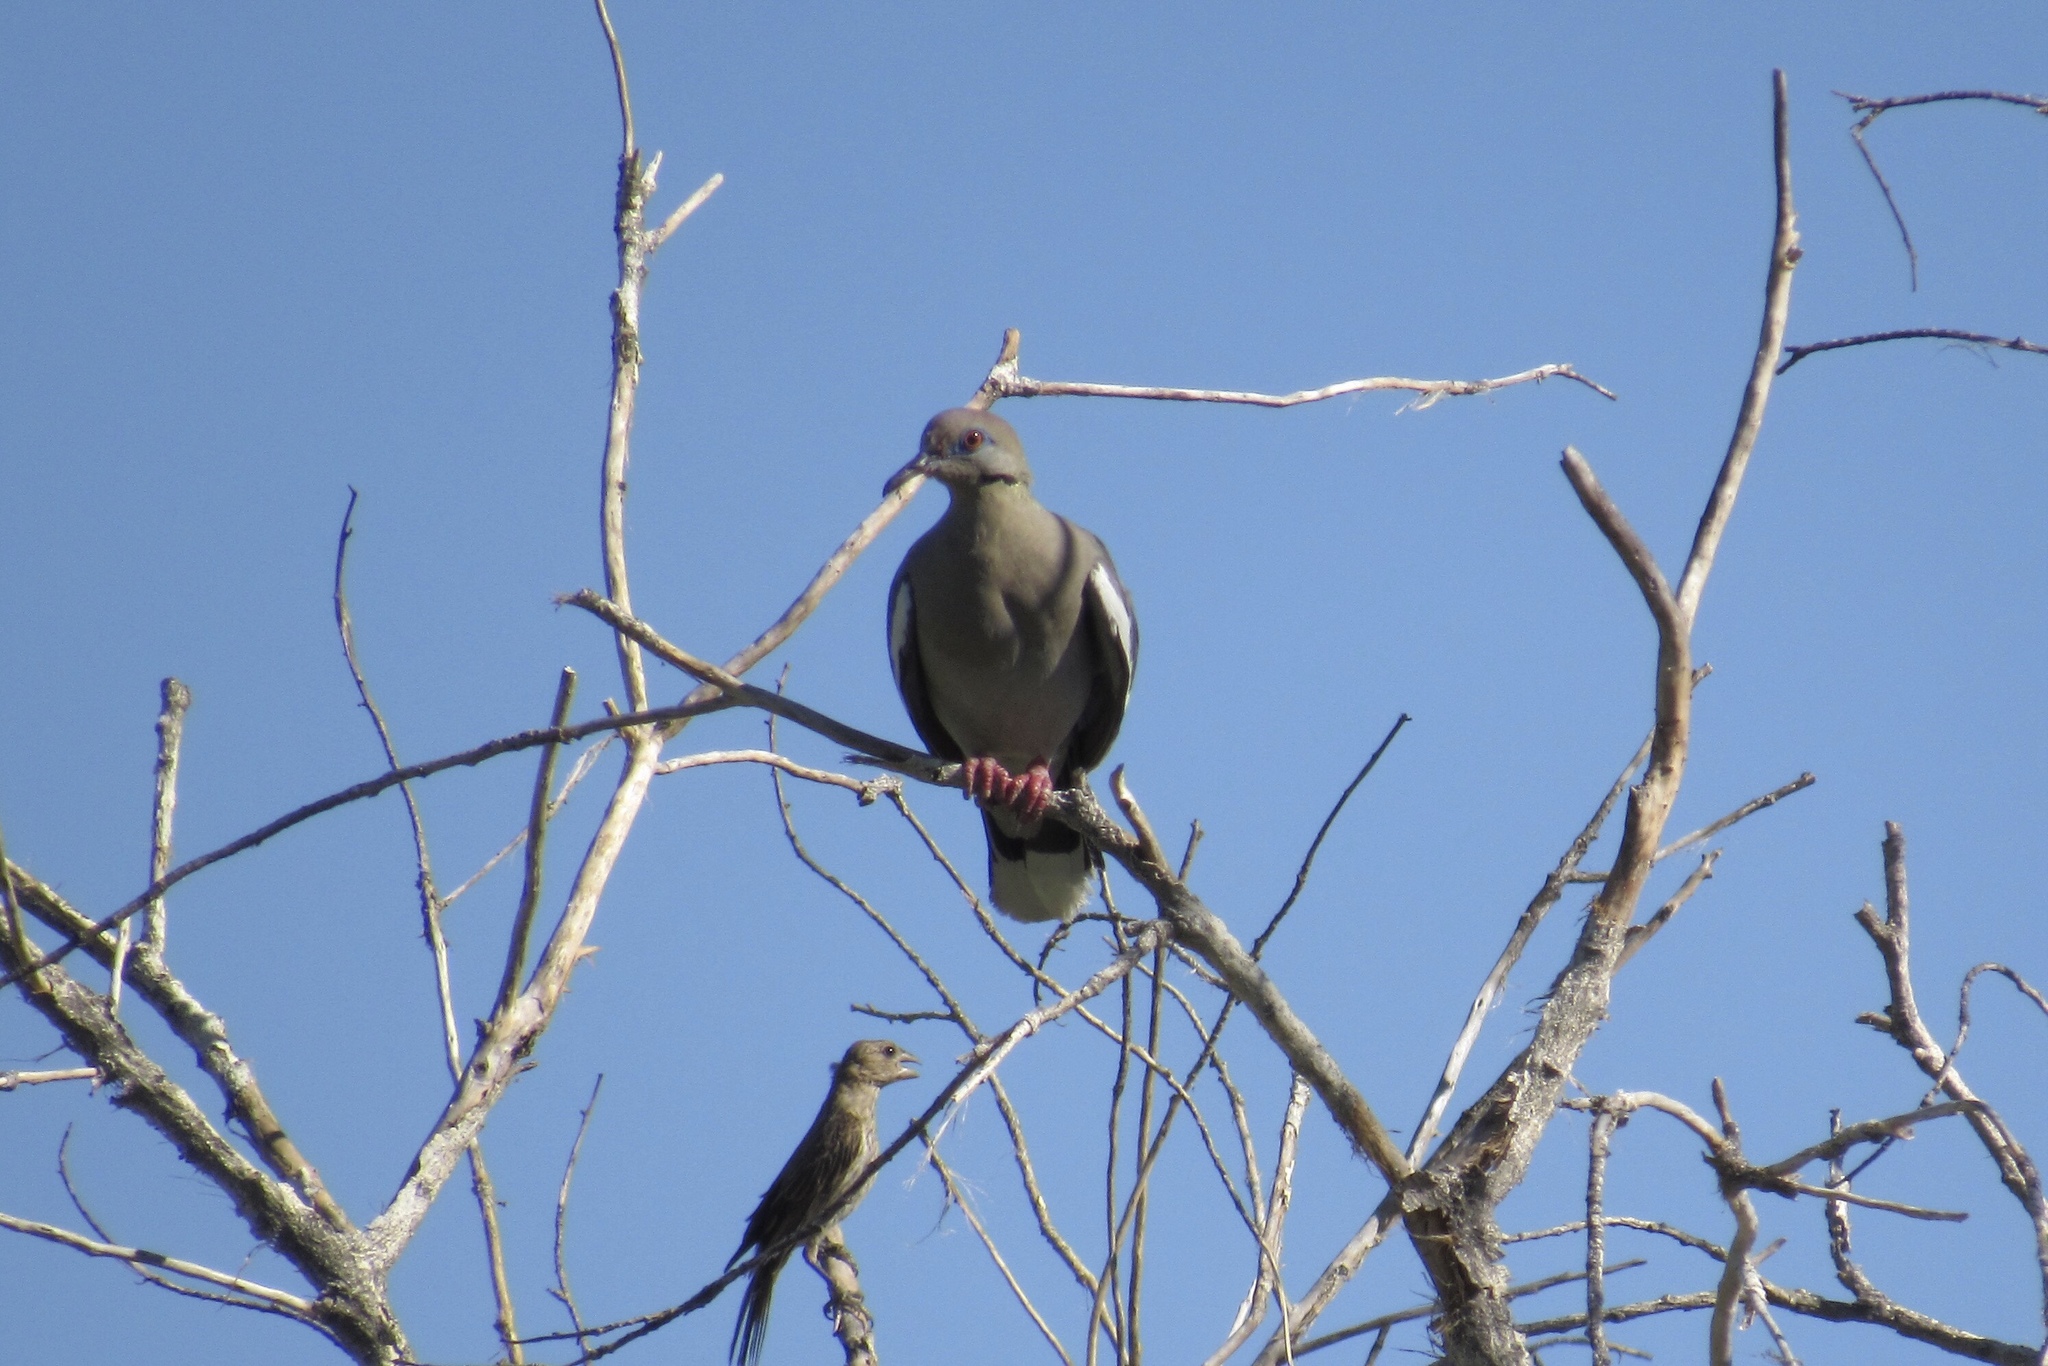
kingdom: Animalia
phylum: Chordata
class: Aves
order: Columbiformes
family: Columbidae
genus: Zenaida
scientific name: Zenaida asiatica
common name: White-winged dove
